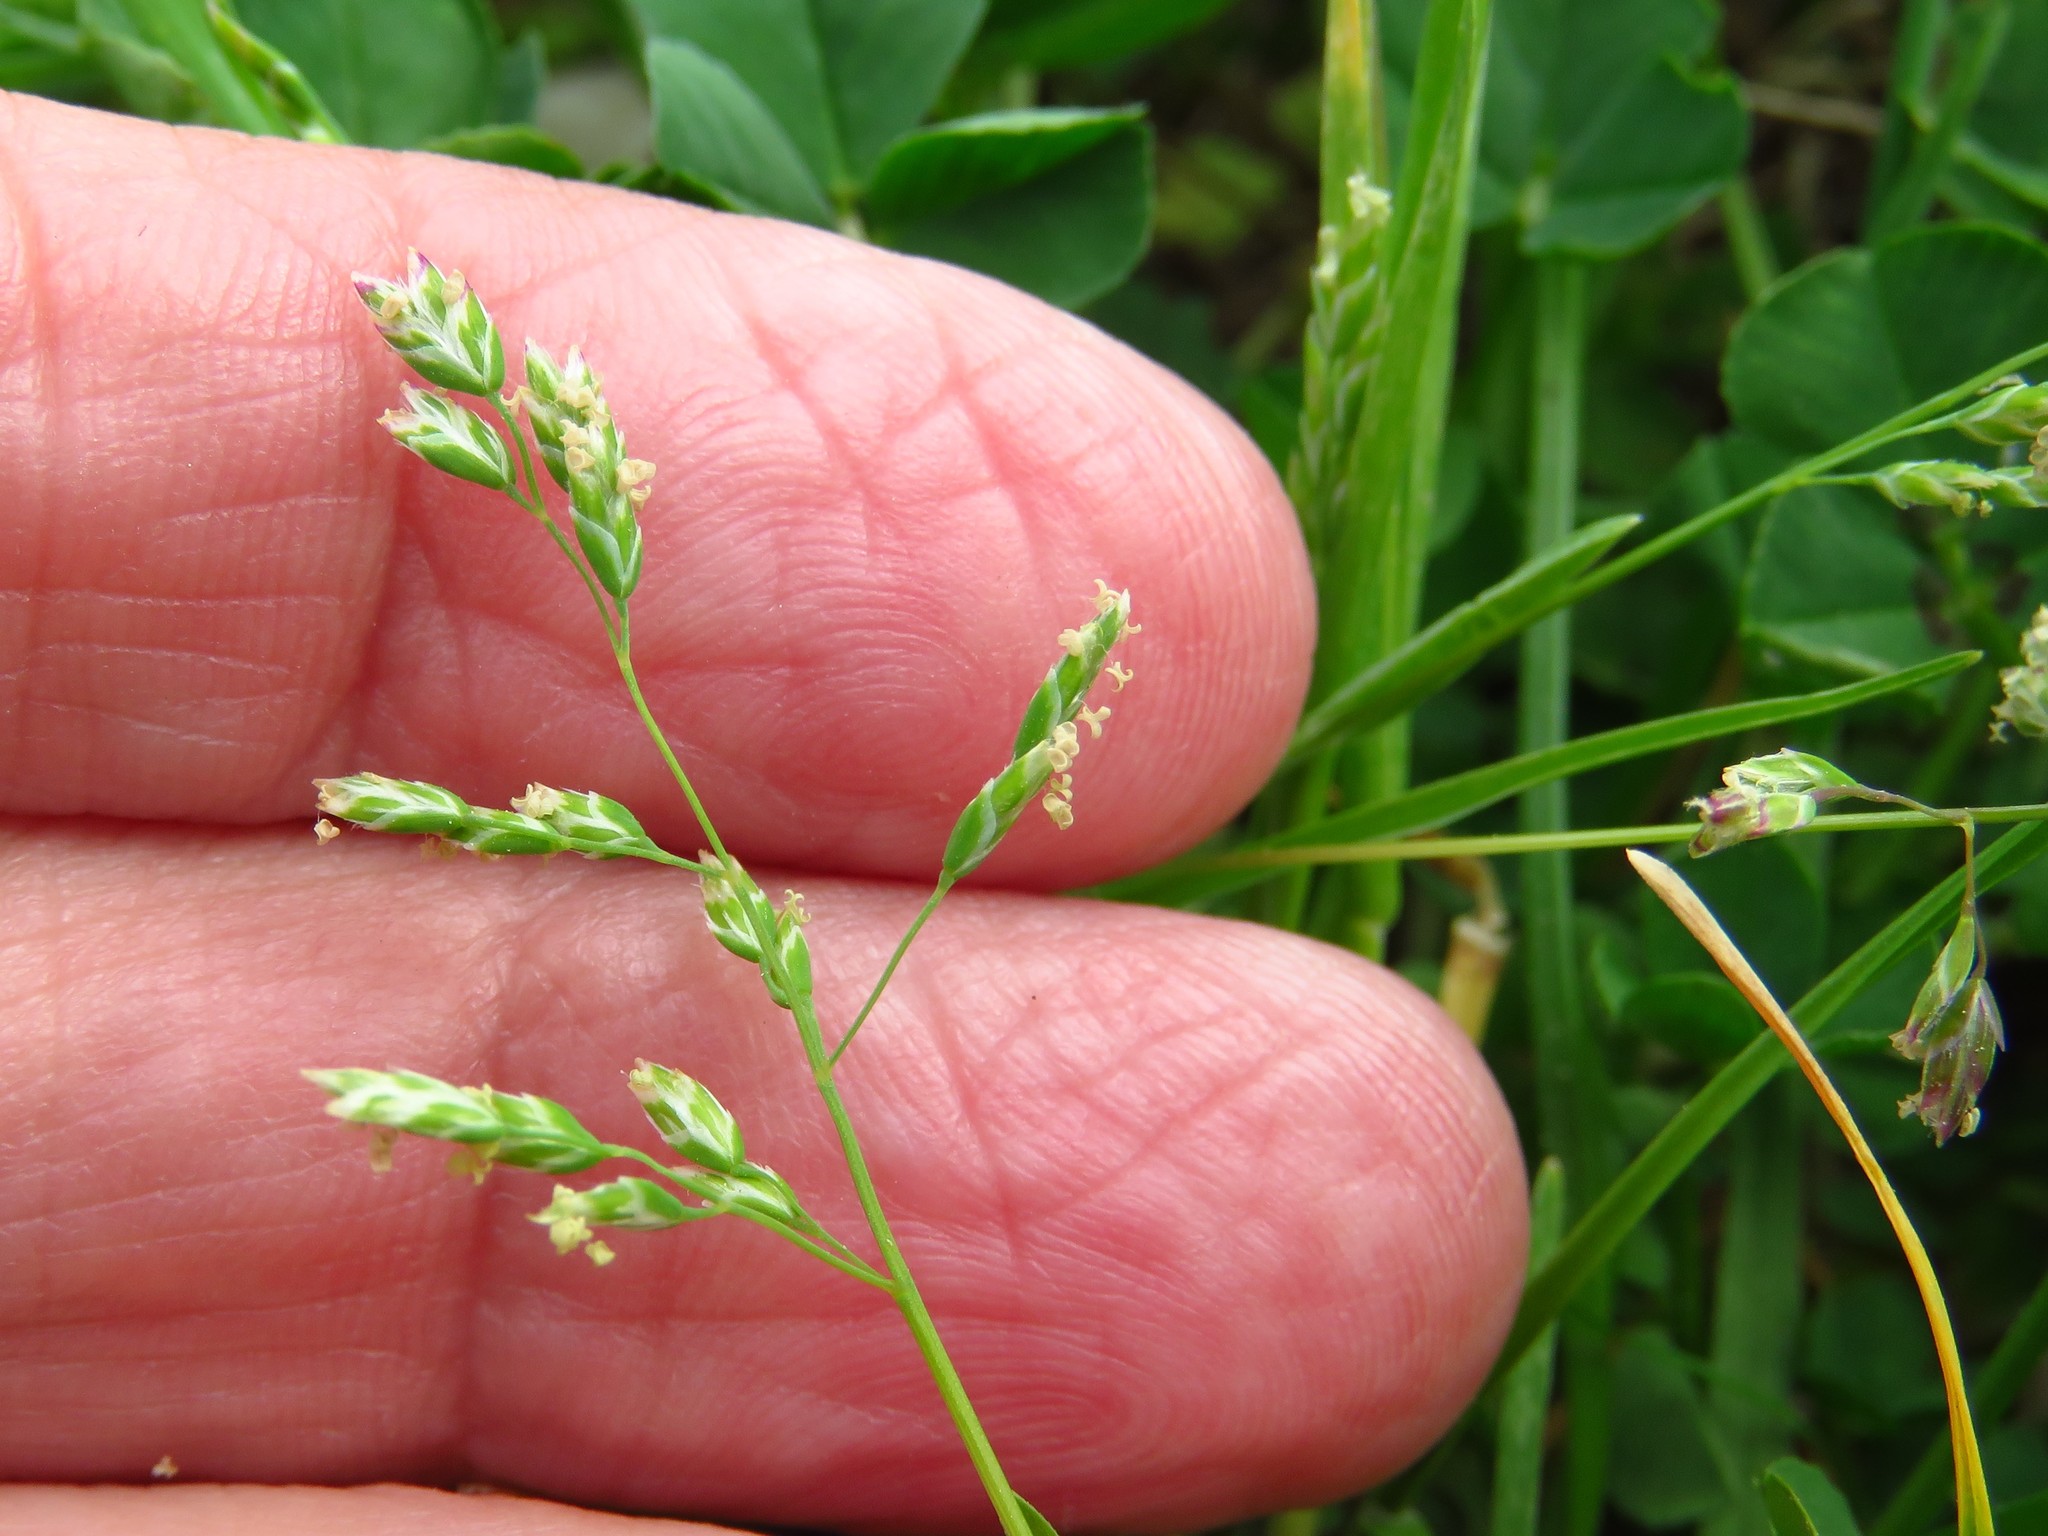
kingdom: Plantae
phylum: Tracheophyta
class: Liliopsida
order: Poales
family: Poaceae
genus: Poa
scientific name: Poa annua
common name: Annual bluegrass
